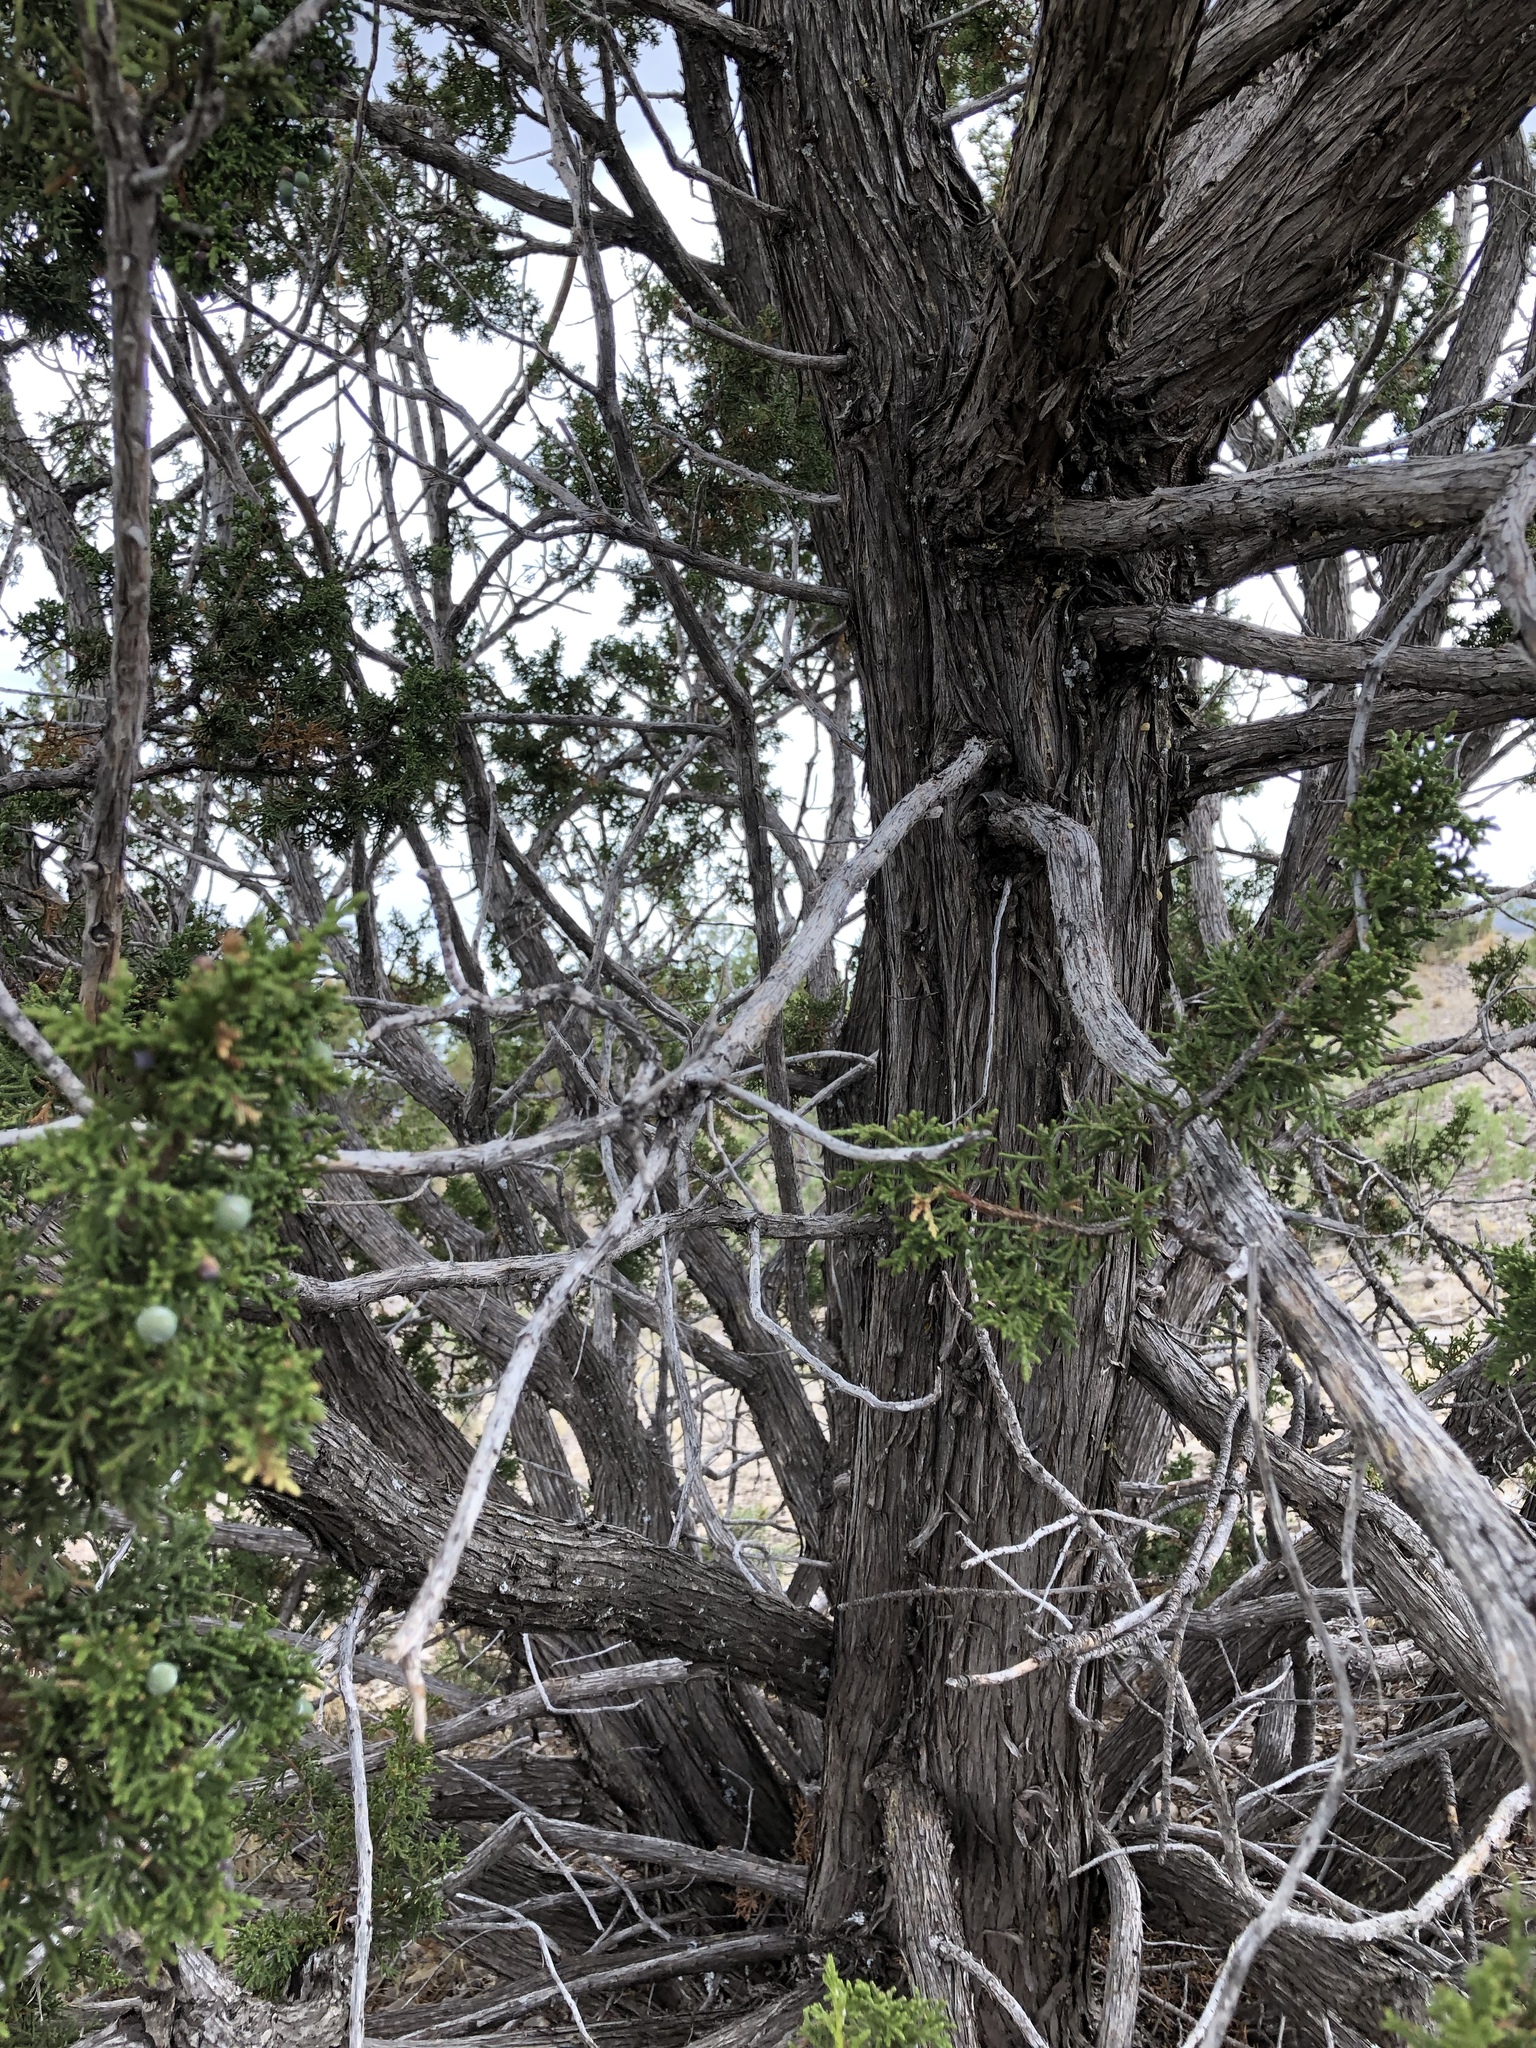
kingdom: Plantae
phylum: Tracheophyta
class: Pinopsida
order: Pinales
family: Cupressaceae
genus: Juniperus
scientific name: Juniperus monosperma
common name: One-seed juniper
